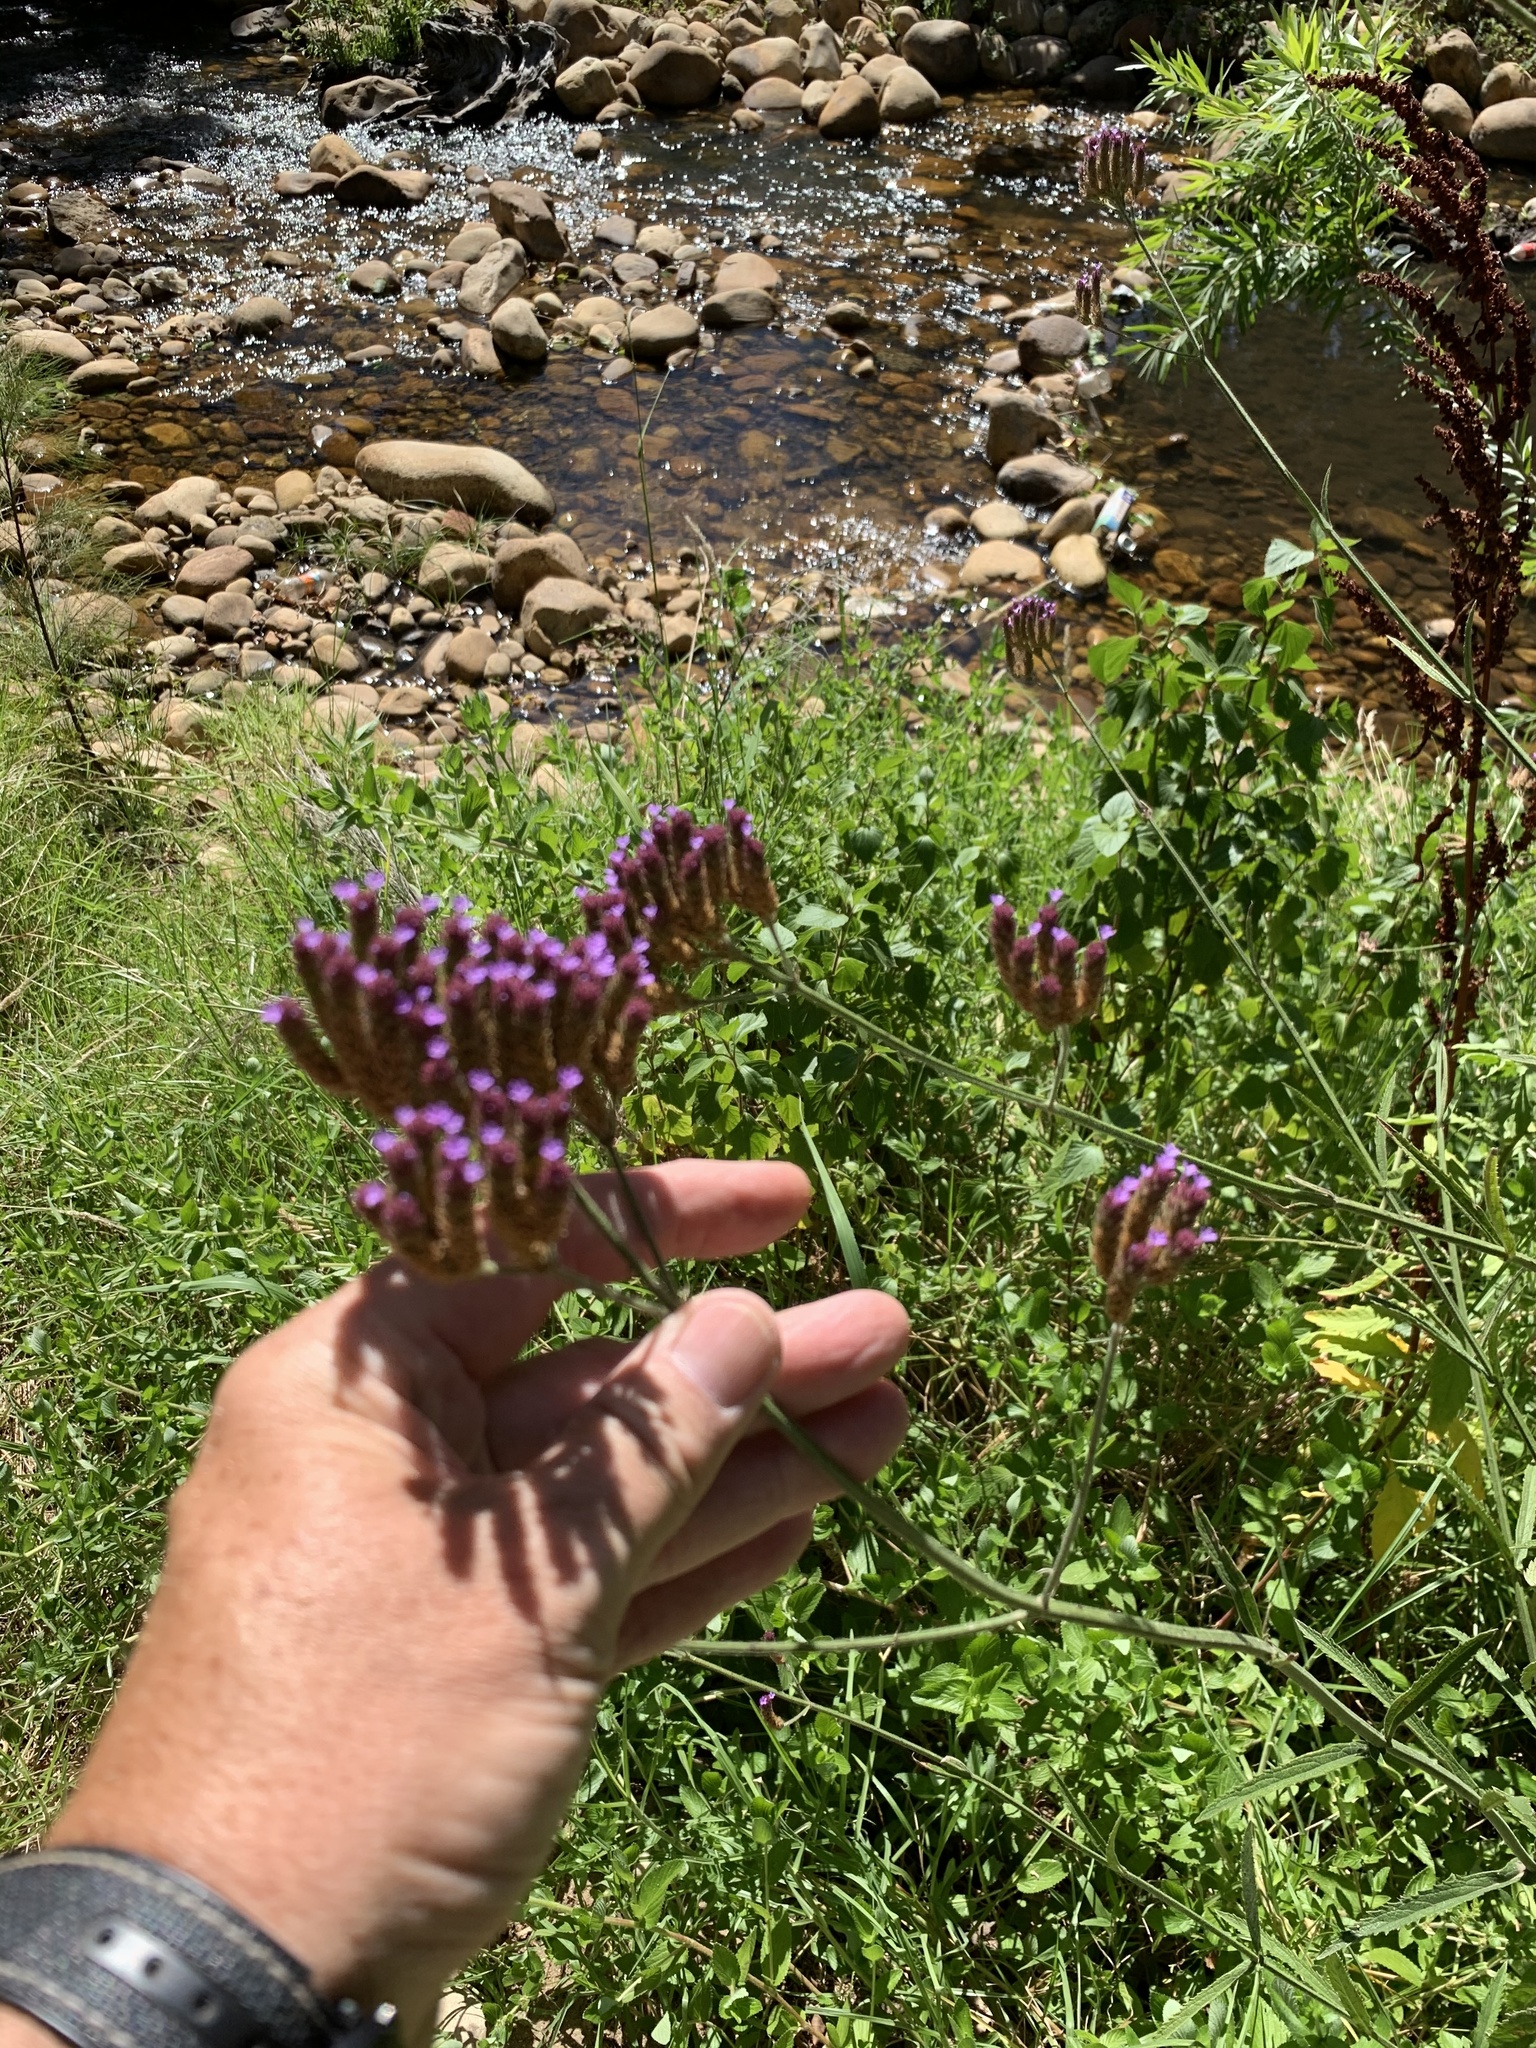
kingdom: Plantae
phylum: Tracheophyta
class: Magnoliopsida
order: Lamiales
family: Verbenaceae
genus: Verbena
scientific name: Verbena bonariensis
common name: Purpletop vervain
